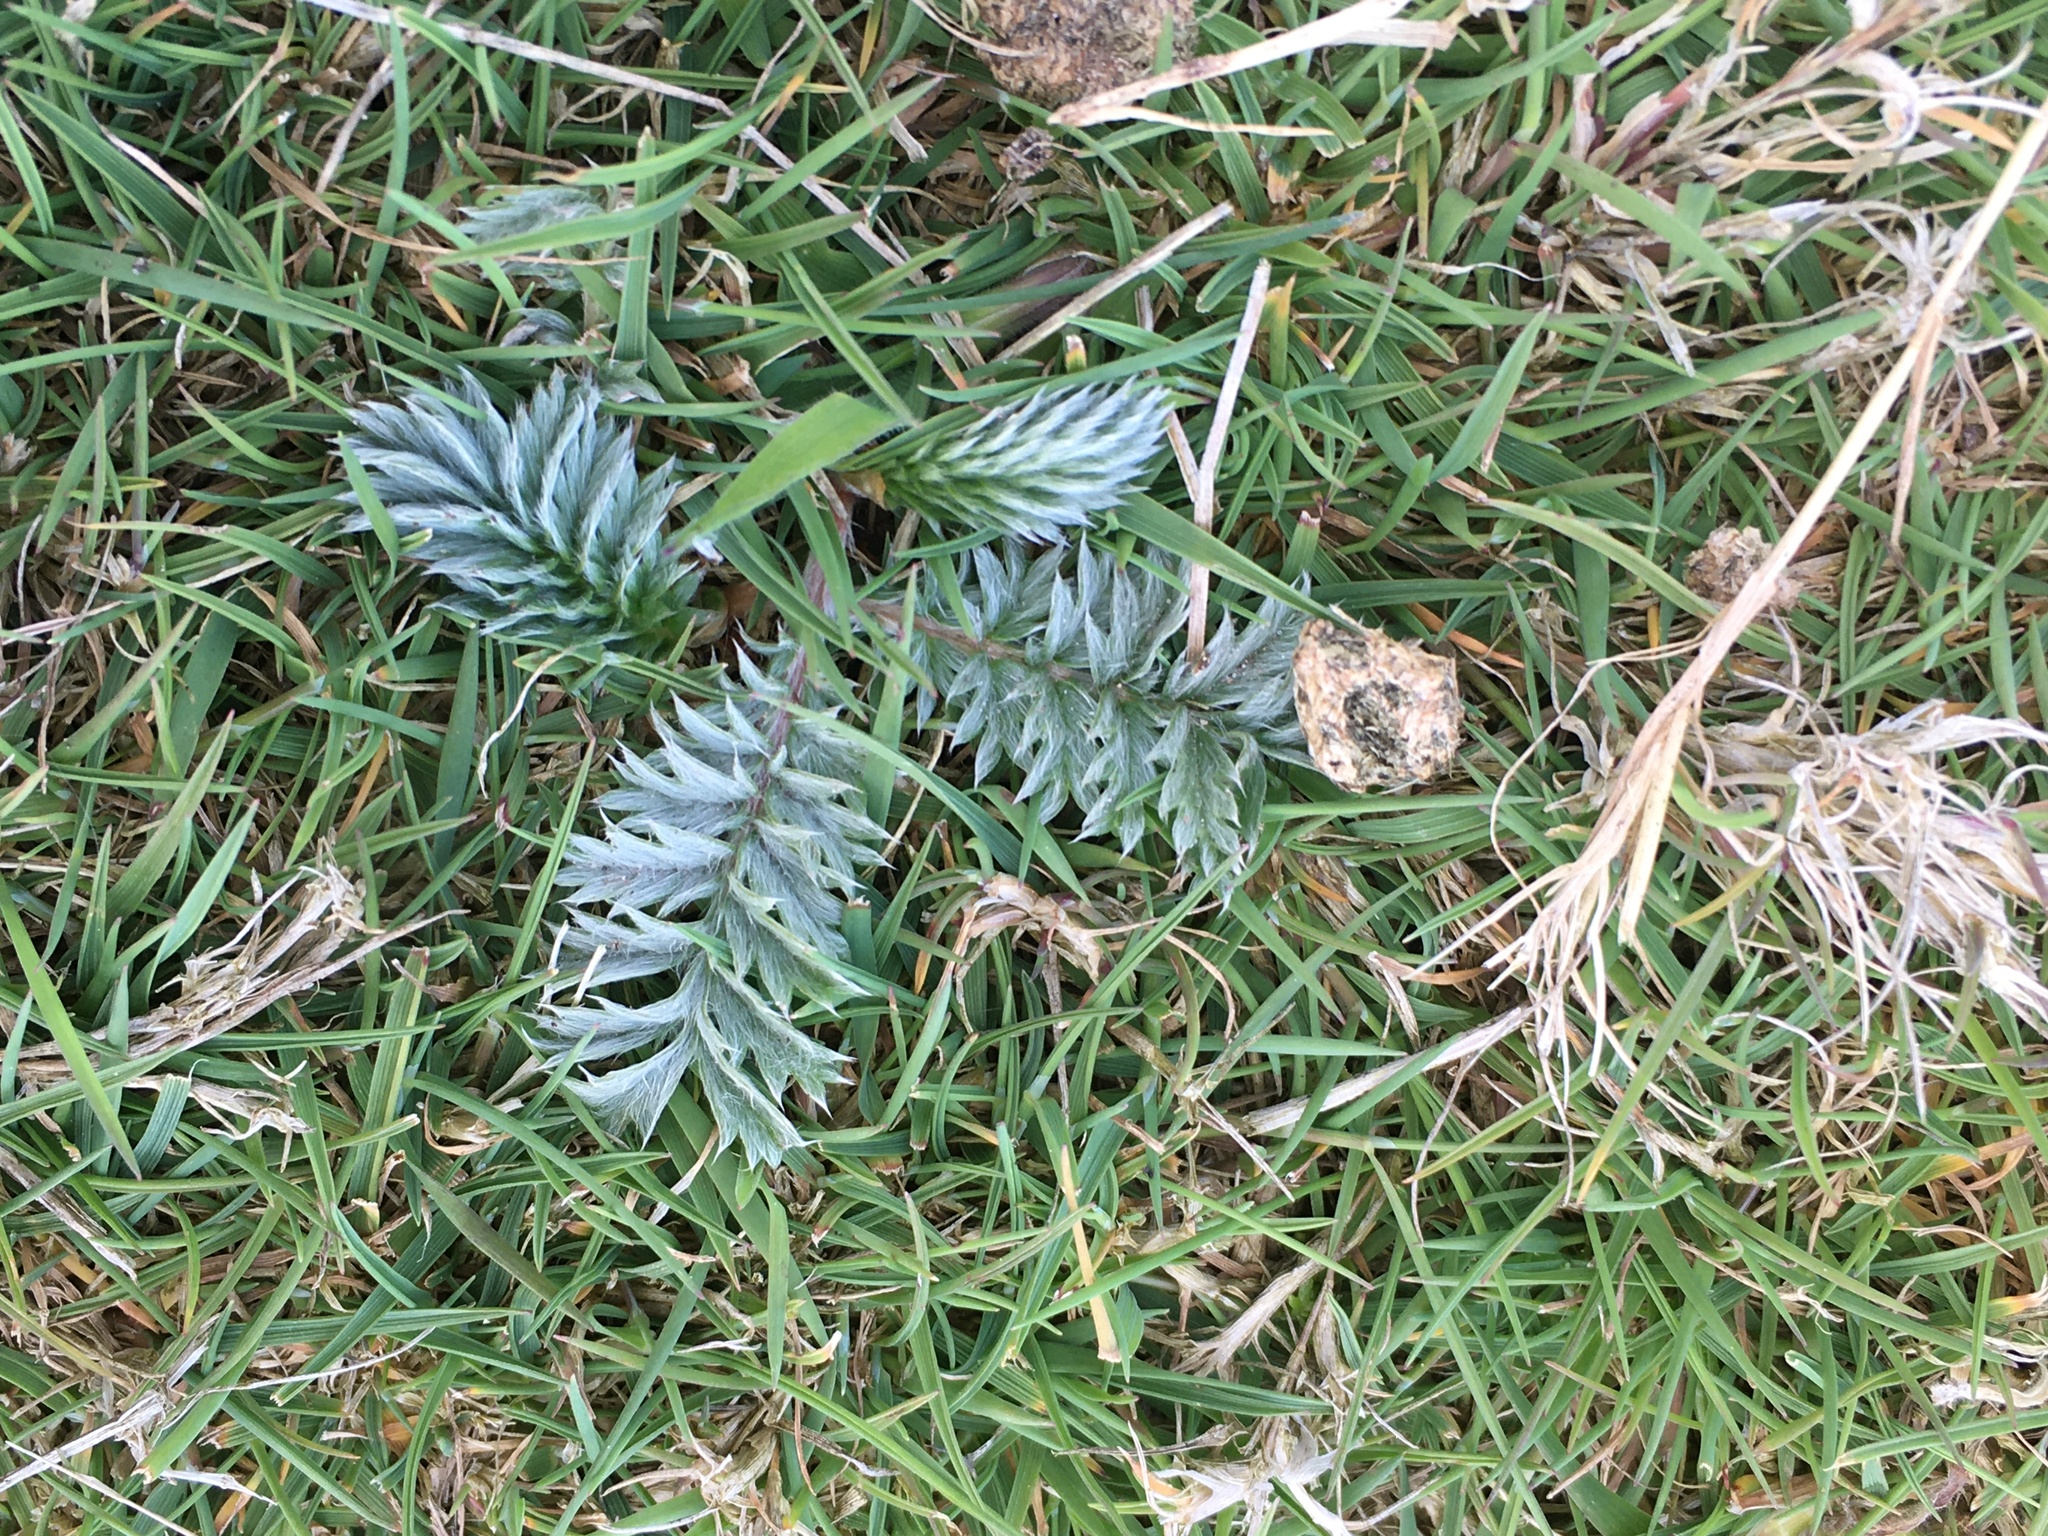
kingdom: Plantae
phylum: Tracheophyta
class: Magnoliopsida
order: Rosales
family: Rosaceae
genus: Argentina
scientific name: Argentina anserina
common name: Common silverweed
